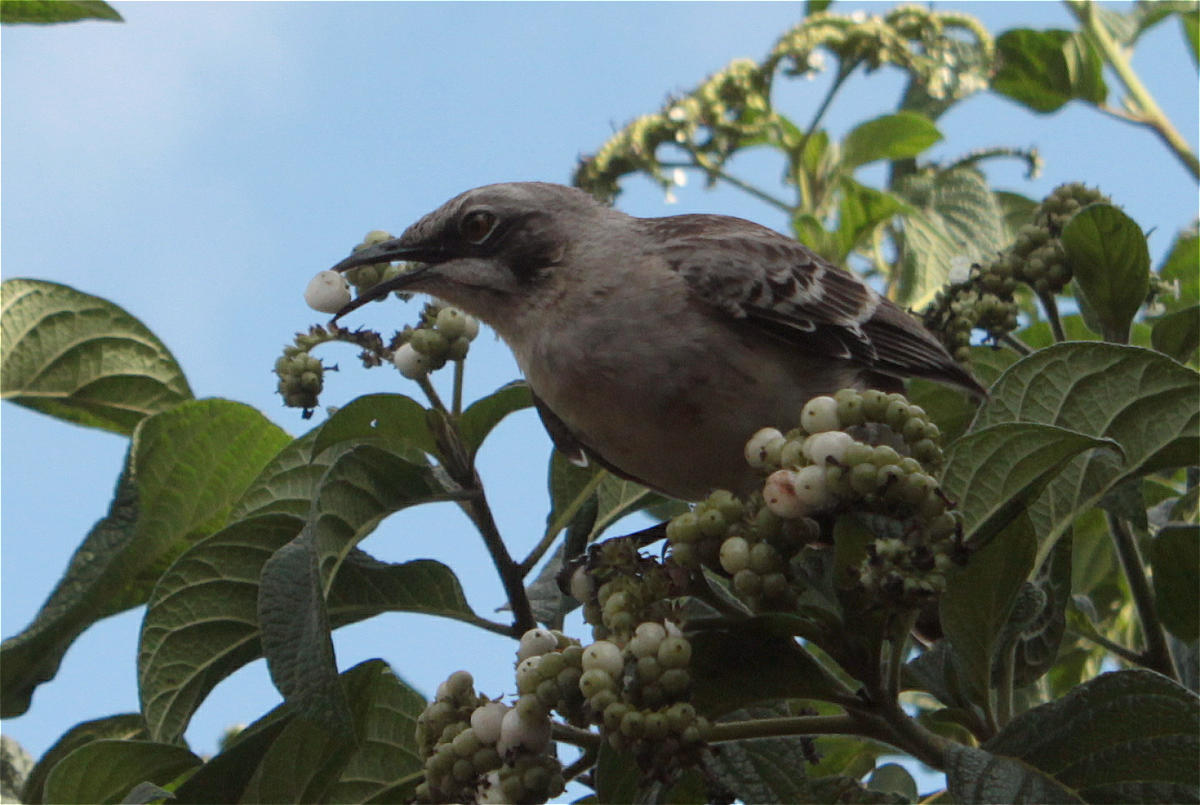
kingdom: Animalia
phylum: Chordata
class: Aves
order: Passeriformes
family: Mimidae
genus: Mimus
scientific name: Mimus melanotis
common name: San cristobal mockingbird
